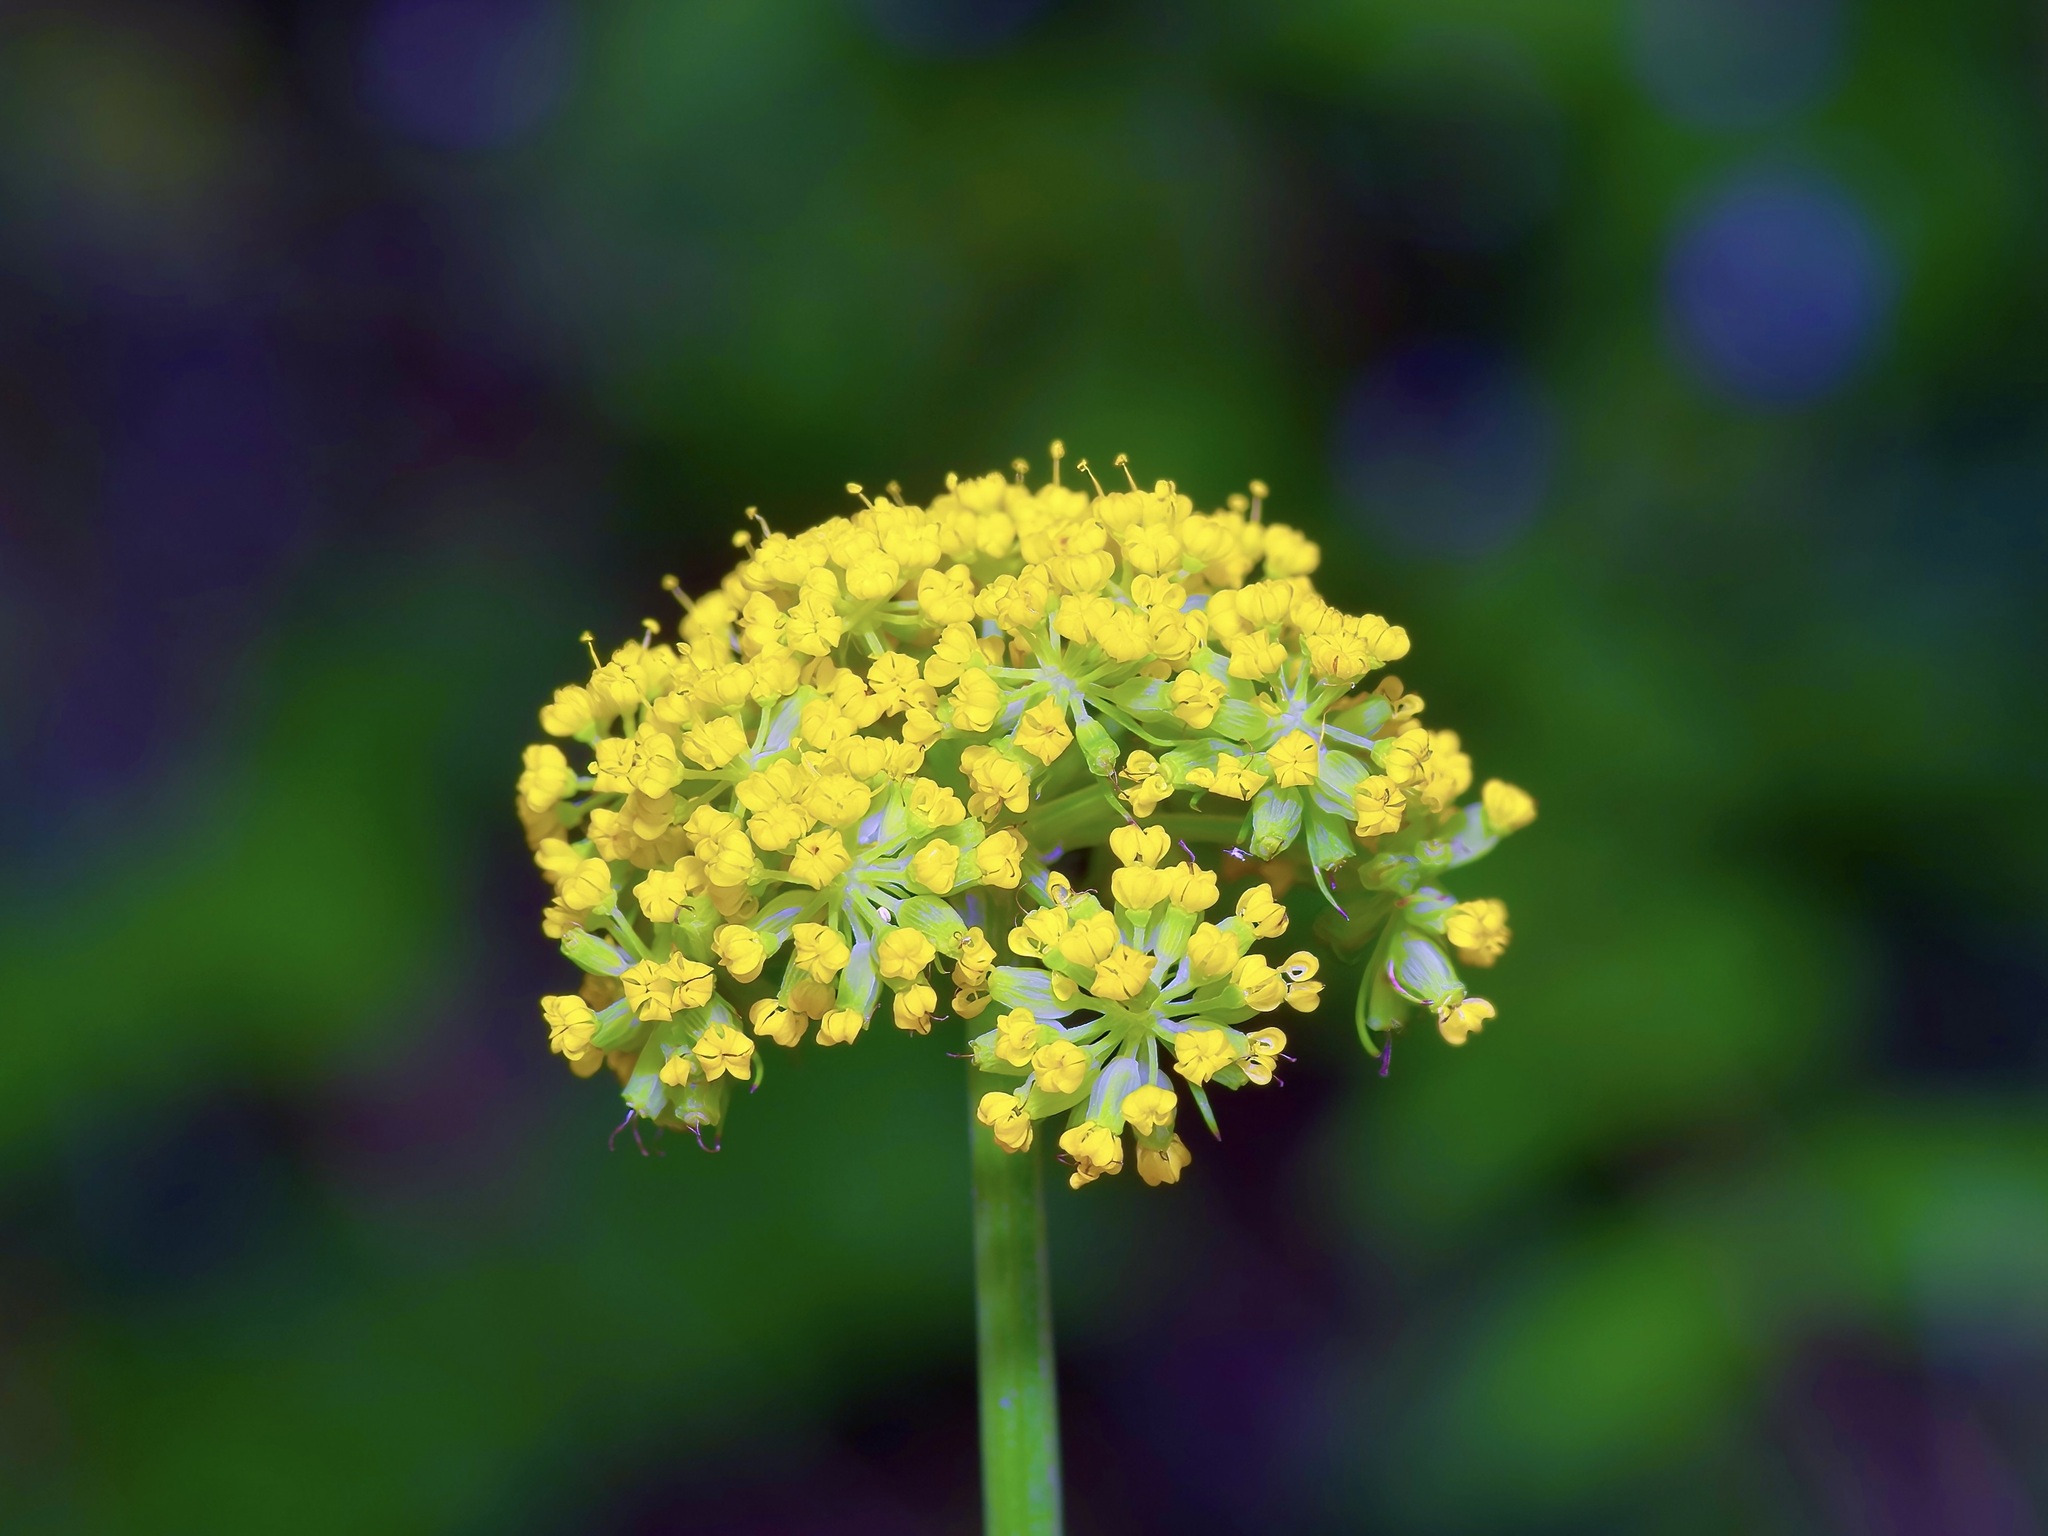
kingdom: Plantae
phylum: Tracheophyta
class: Magnoliopsida
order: Apiales
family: Apiaceae
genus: Cymopterus
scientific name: Cymopterus lemmonii
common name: Lemmon's spring-parsley
